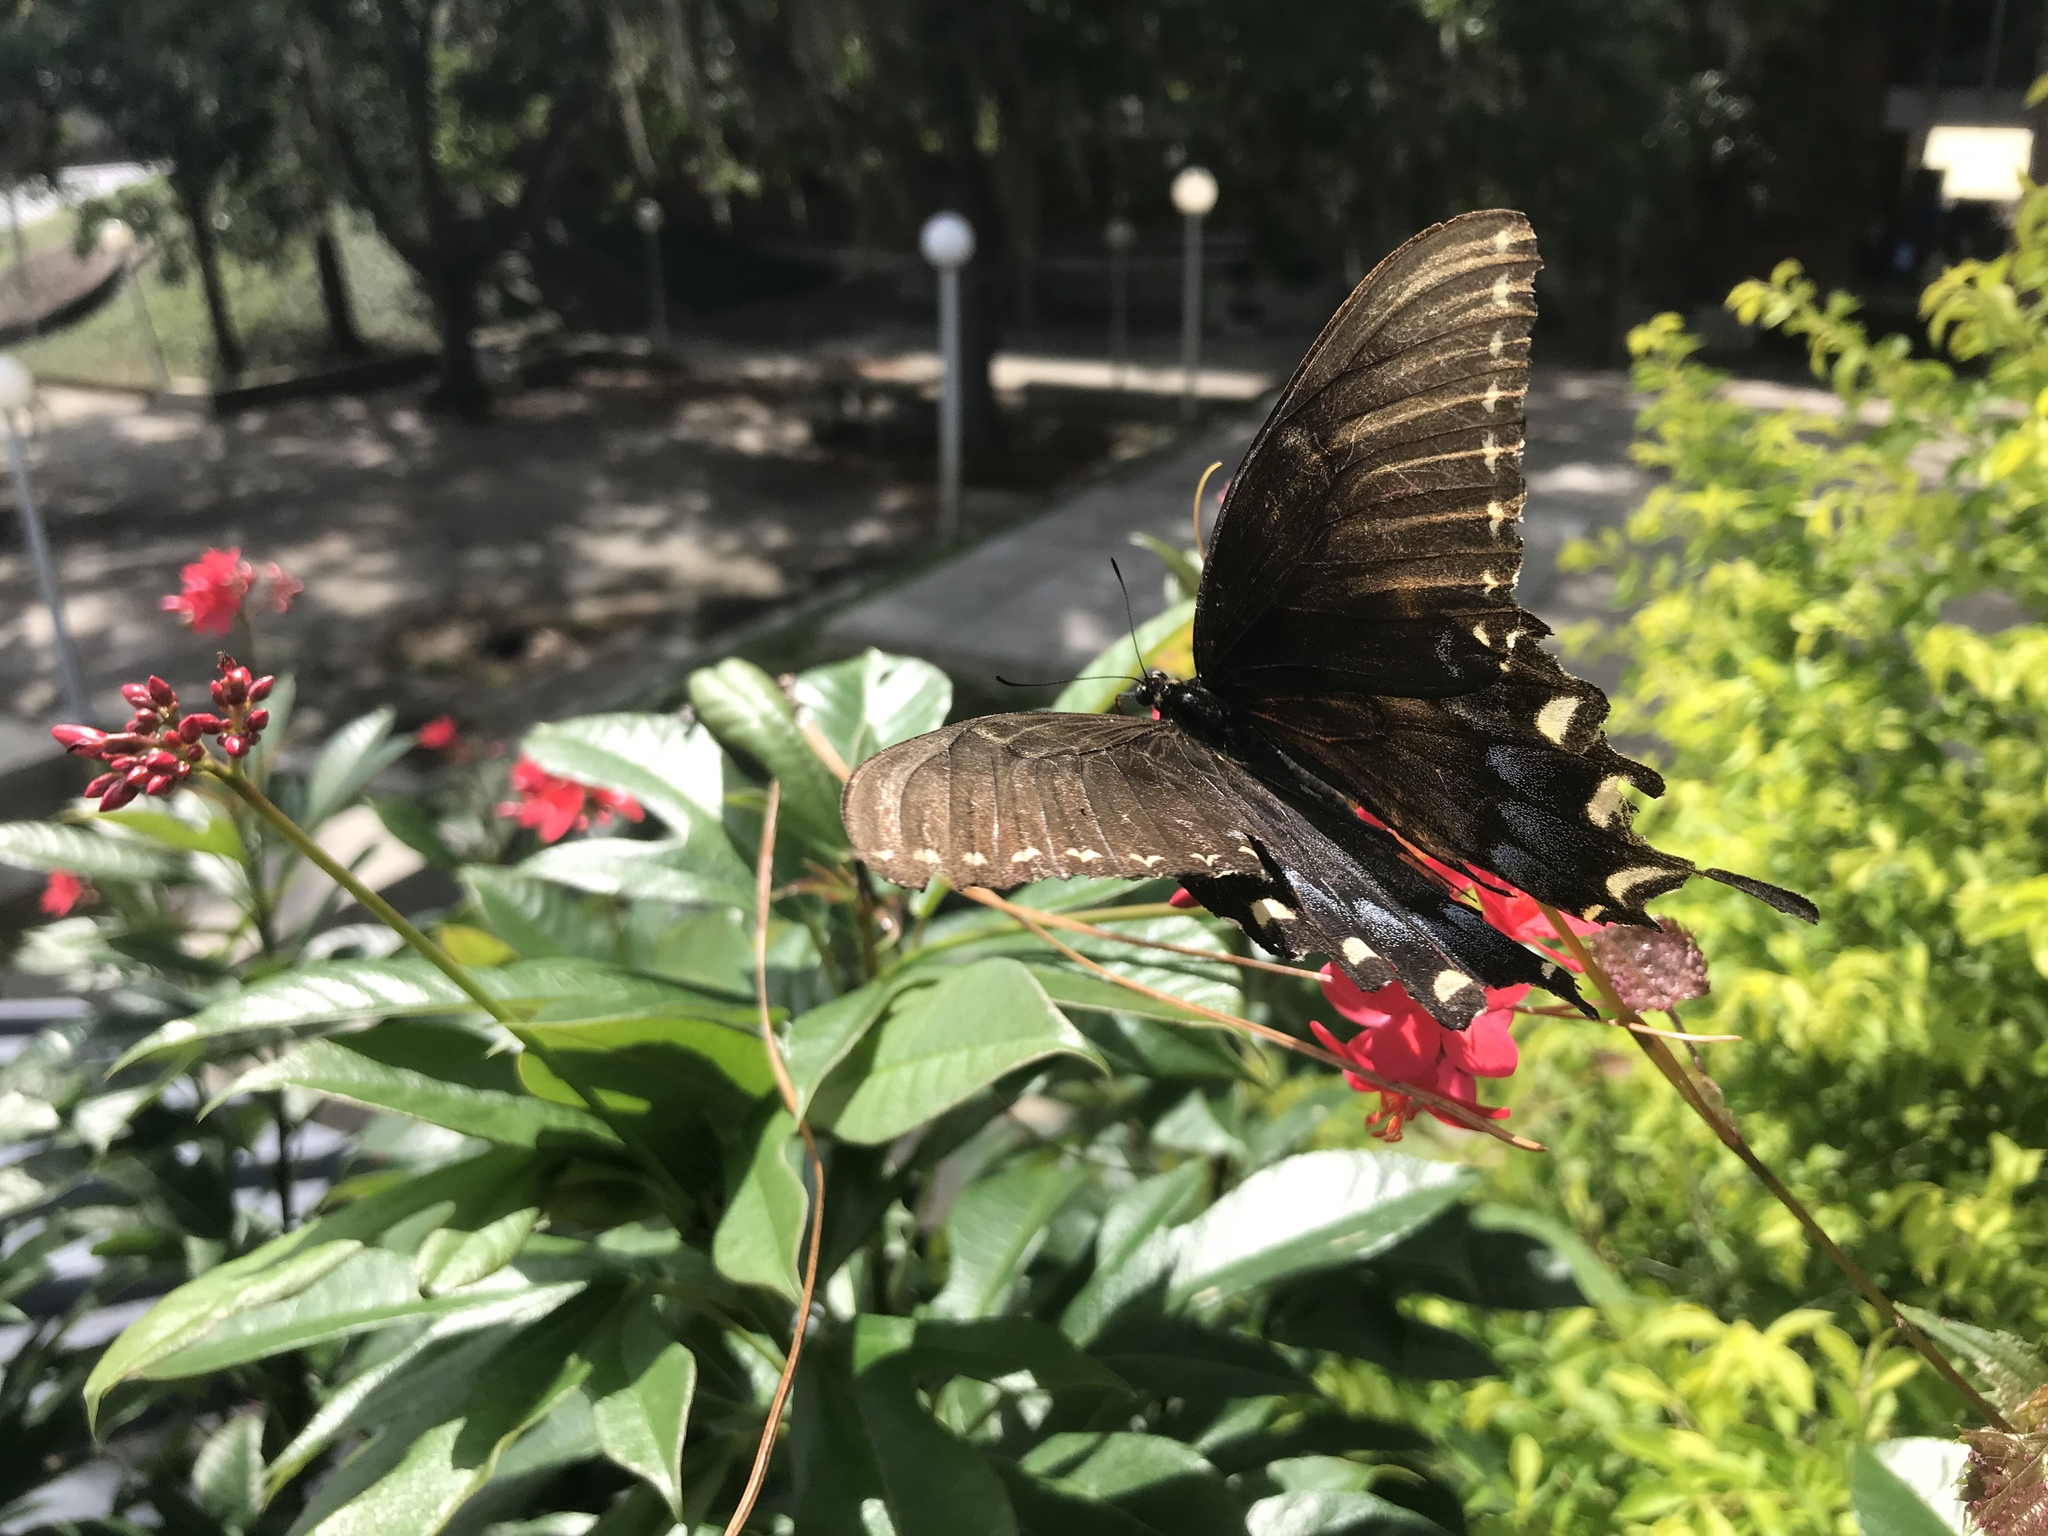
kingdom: Animalia
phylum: Arthropoda
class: Insecta
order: Lepidoptera
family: Papilionidae
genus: Papilio
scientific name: Papilio glaucus
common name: Tiger swallowtail
